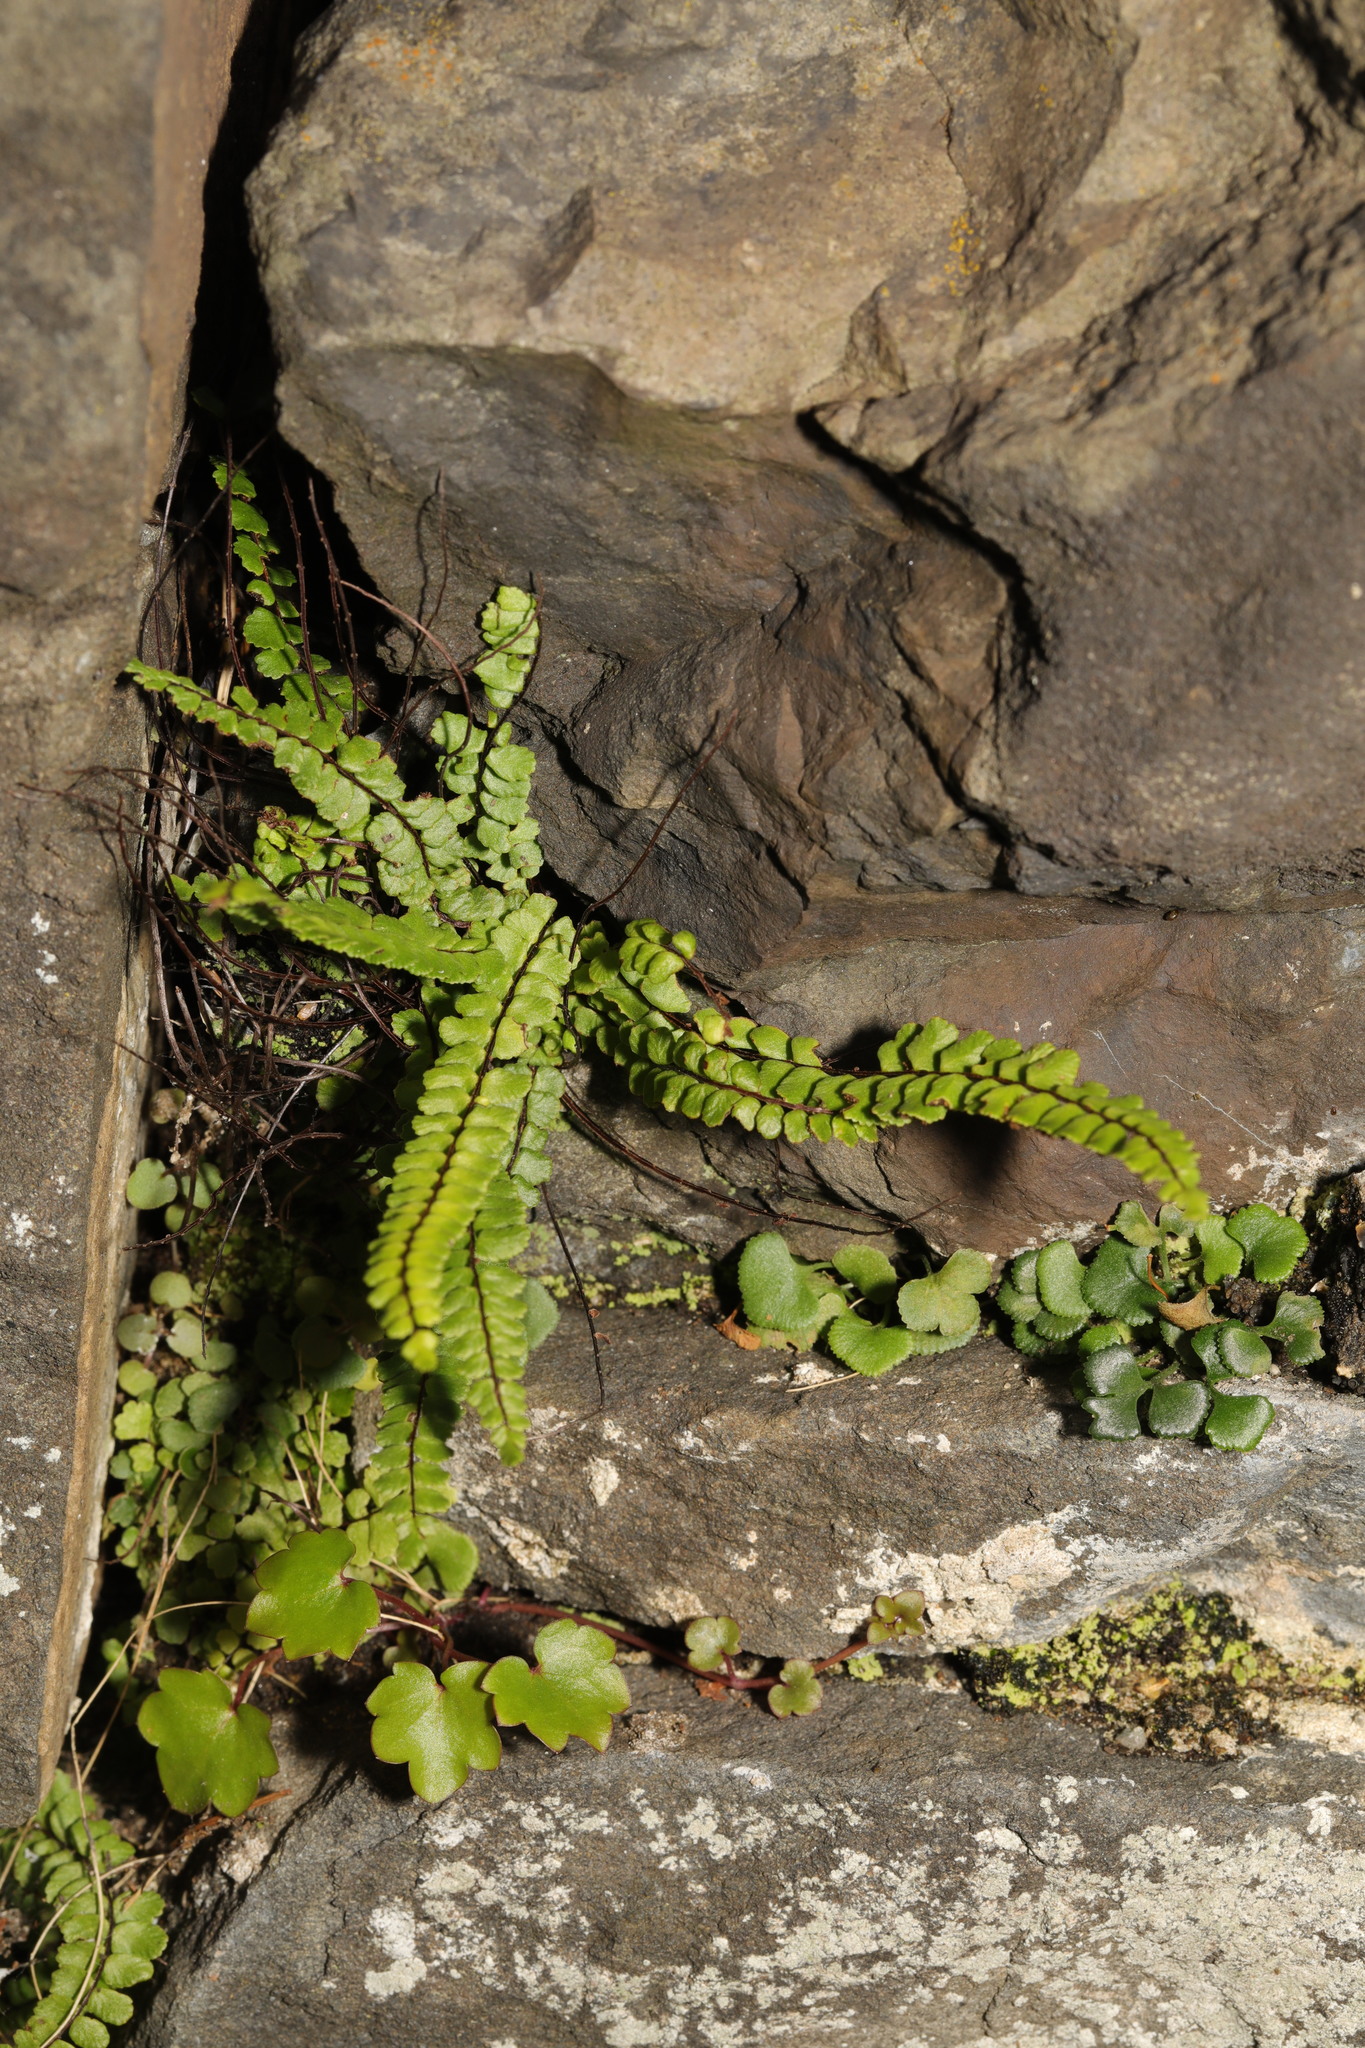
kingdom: Plantae
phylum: Tracheophyta
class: Polypodiopsida
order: Polypodiales
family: Aspleniaceae
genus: Asplenium
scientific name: Asplenium trichomanes
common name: Maidenhair spleenwort
